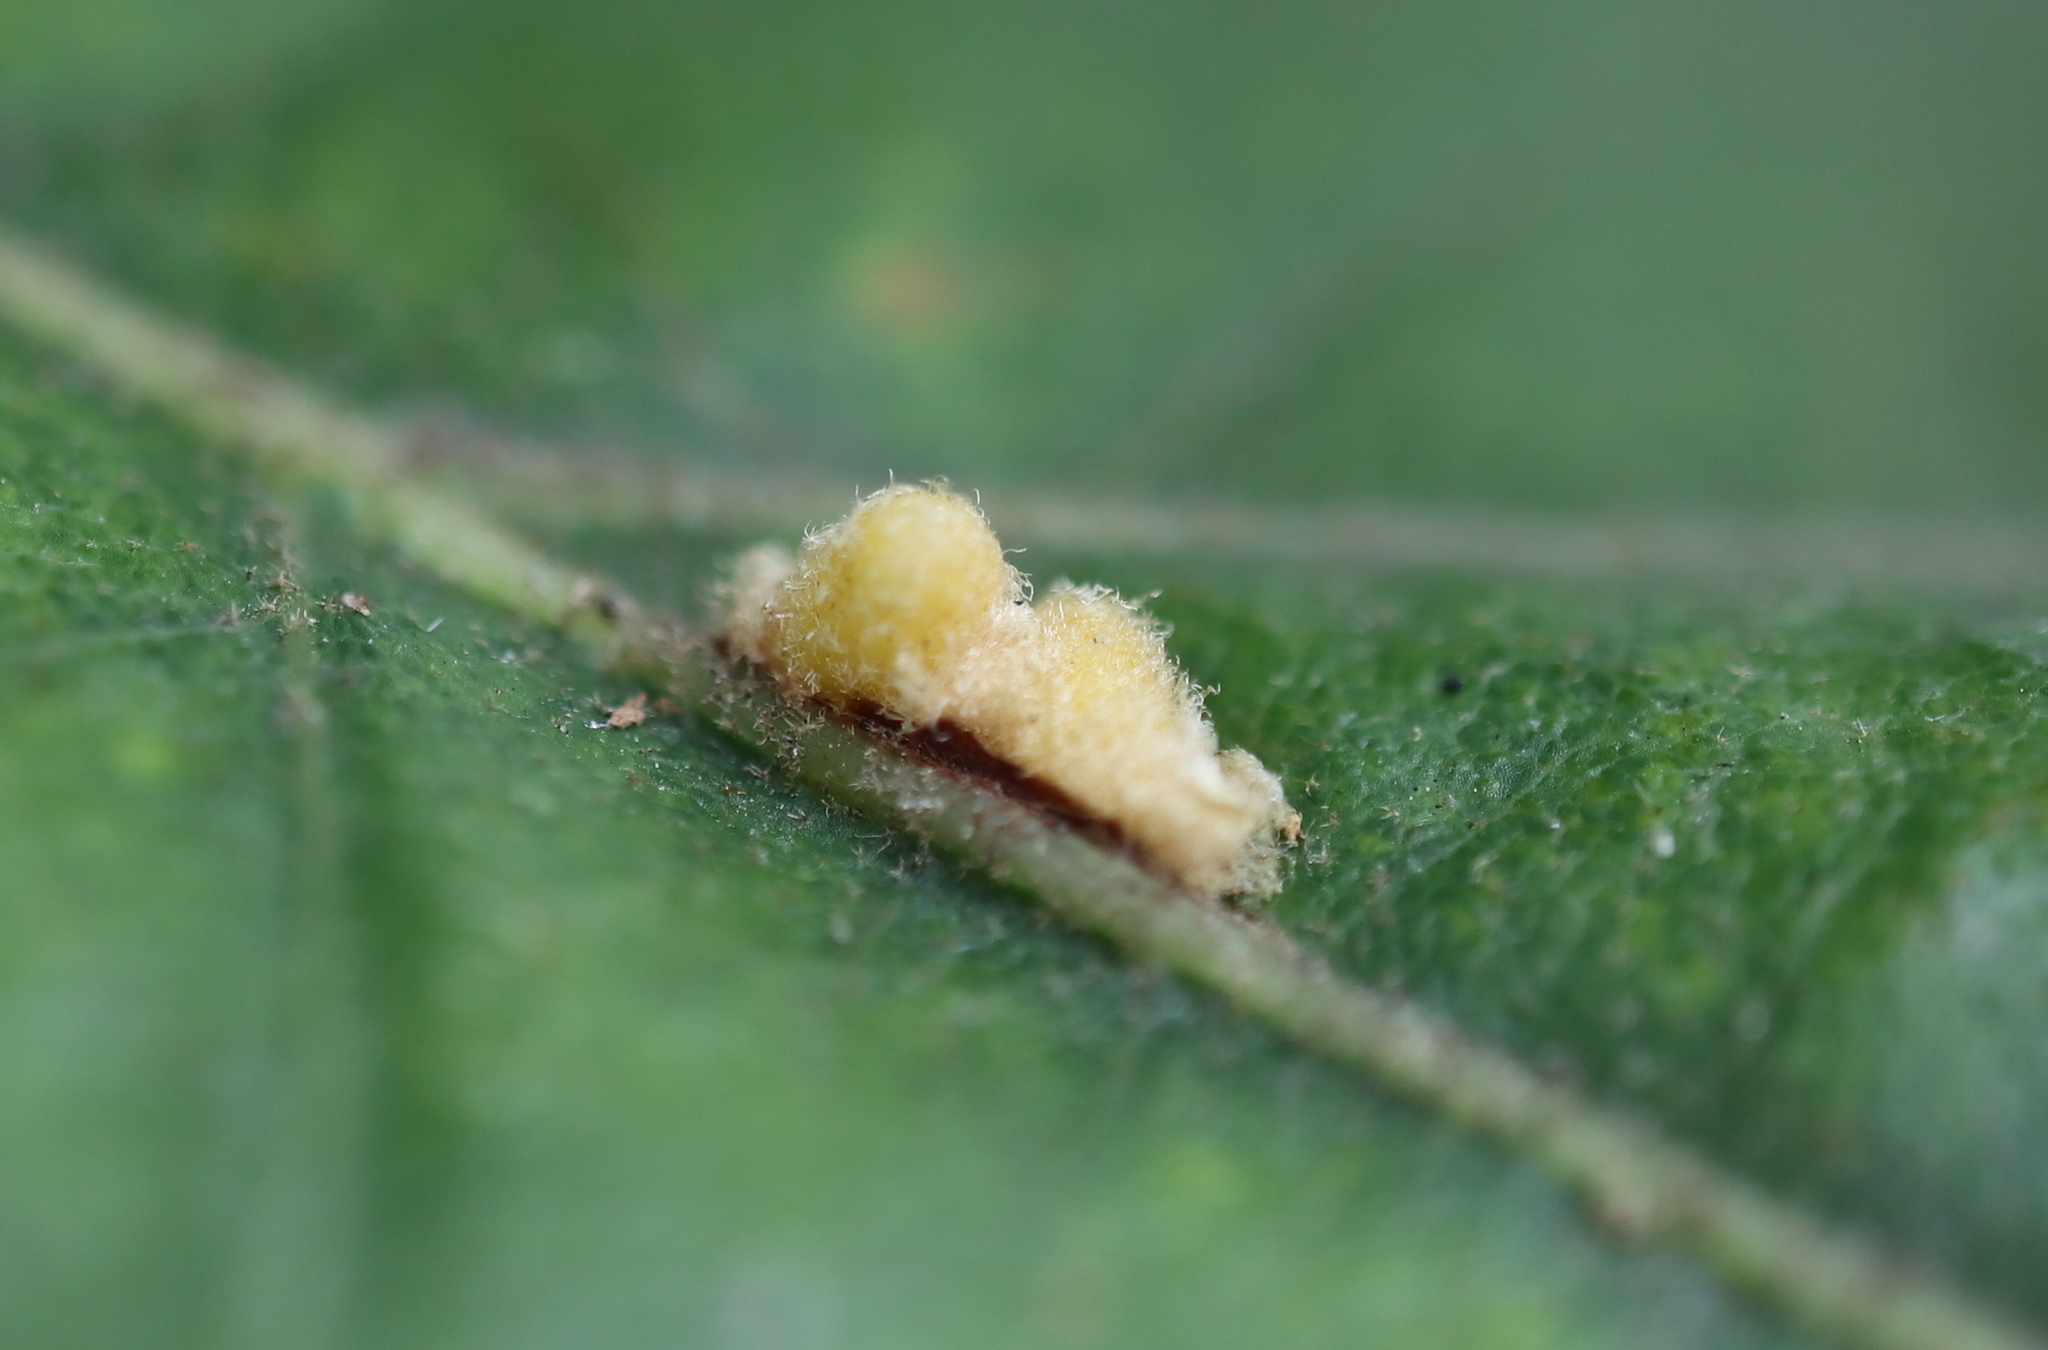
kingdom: Animalia
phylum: Arthropoda
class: Insecta
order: Hymenoptera
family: Cynipidae
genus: Andricus
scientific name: Andricus Druon pattoni
